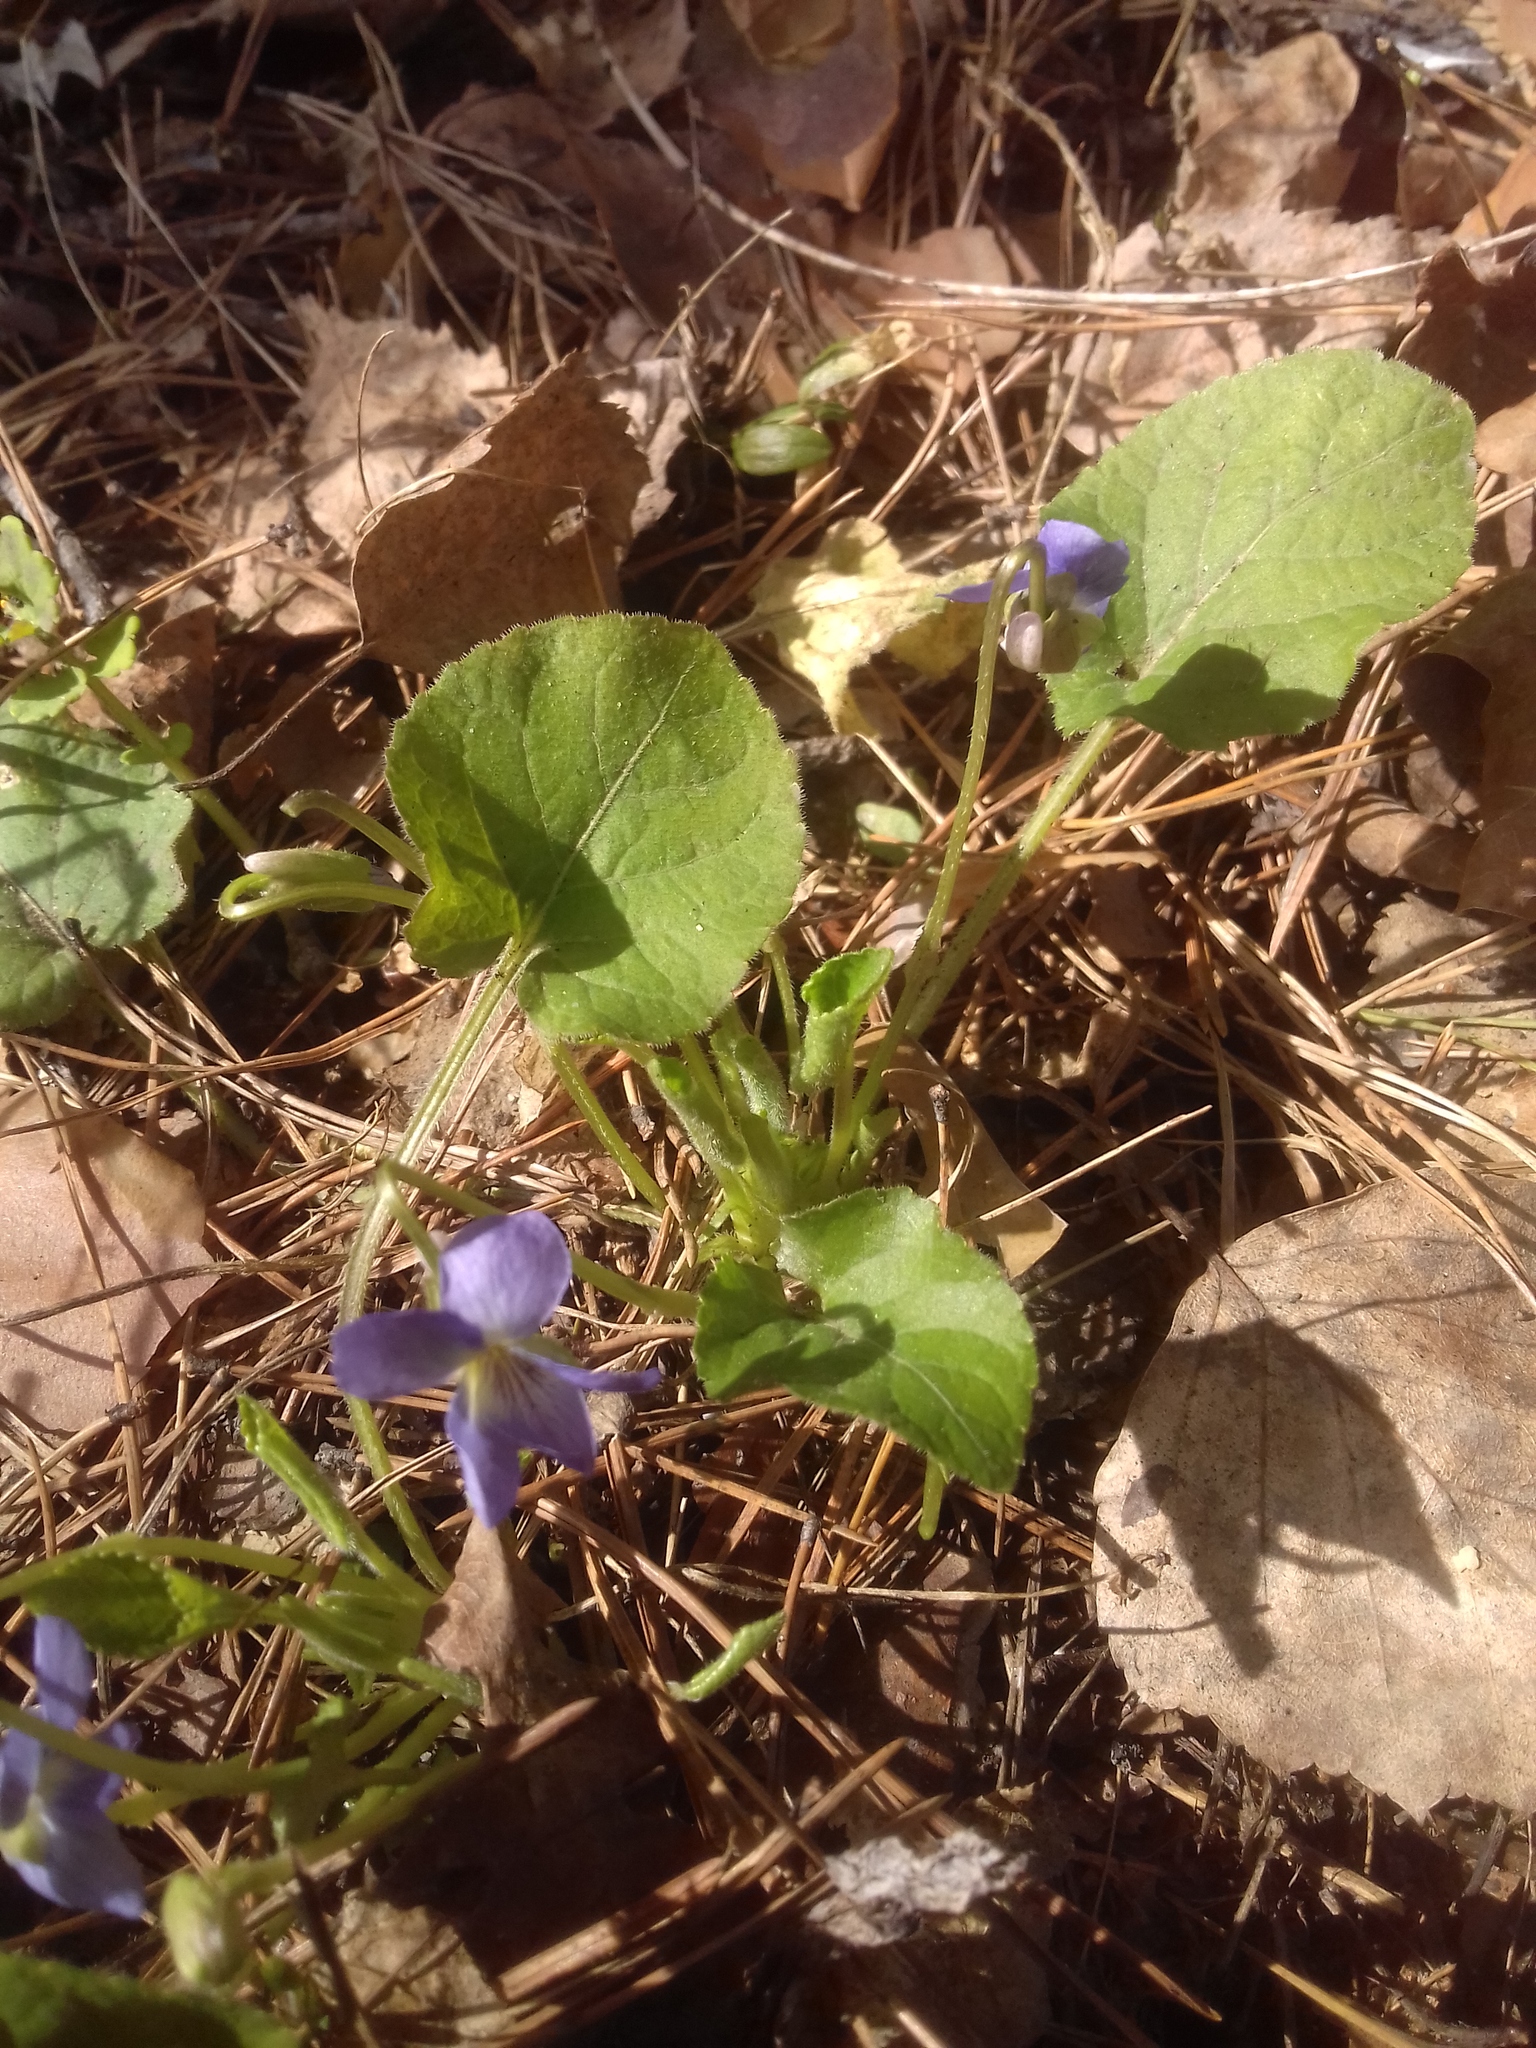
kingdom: Plantae
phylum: Tracheophyta
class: Magnoliopsida
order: Malpighiales
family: Violaceae
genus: Viola
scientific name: Viola collina
